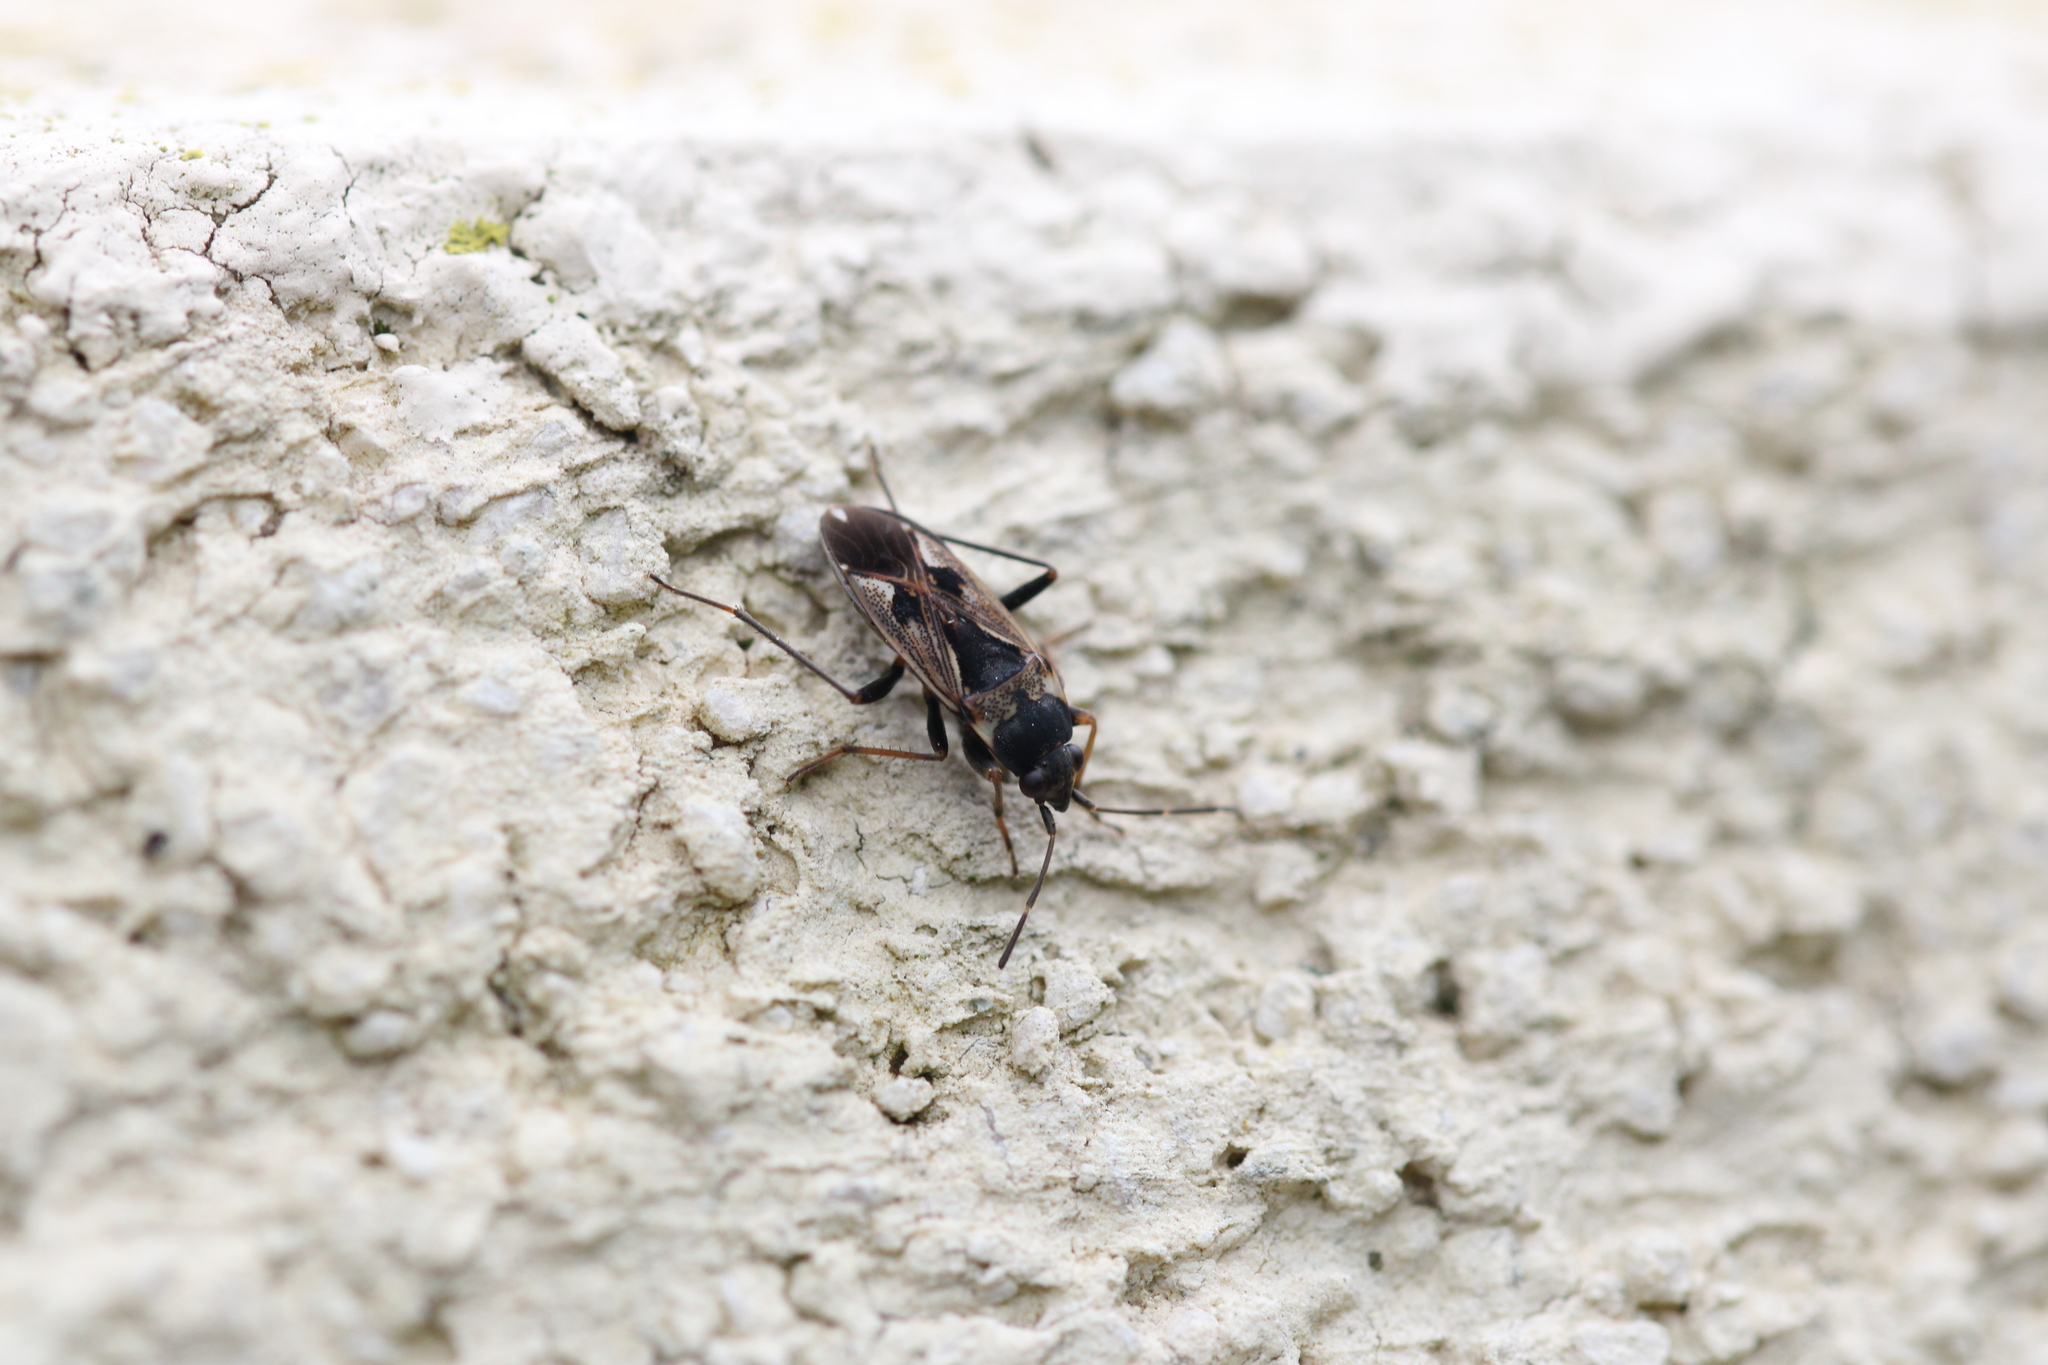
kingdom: Animalia
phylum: Arthropoda
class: Insecta
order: Hemiptera
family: Rhyparochromidae
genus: Rhyparochromus
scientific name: Rhyparochromus vulgaris
